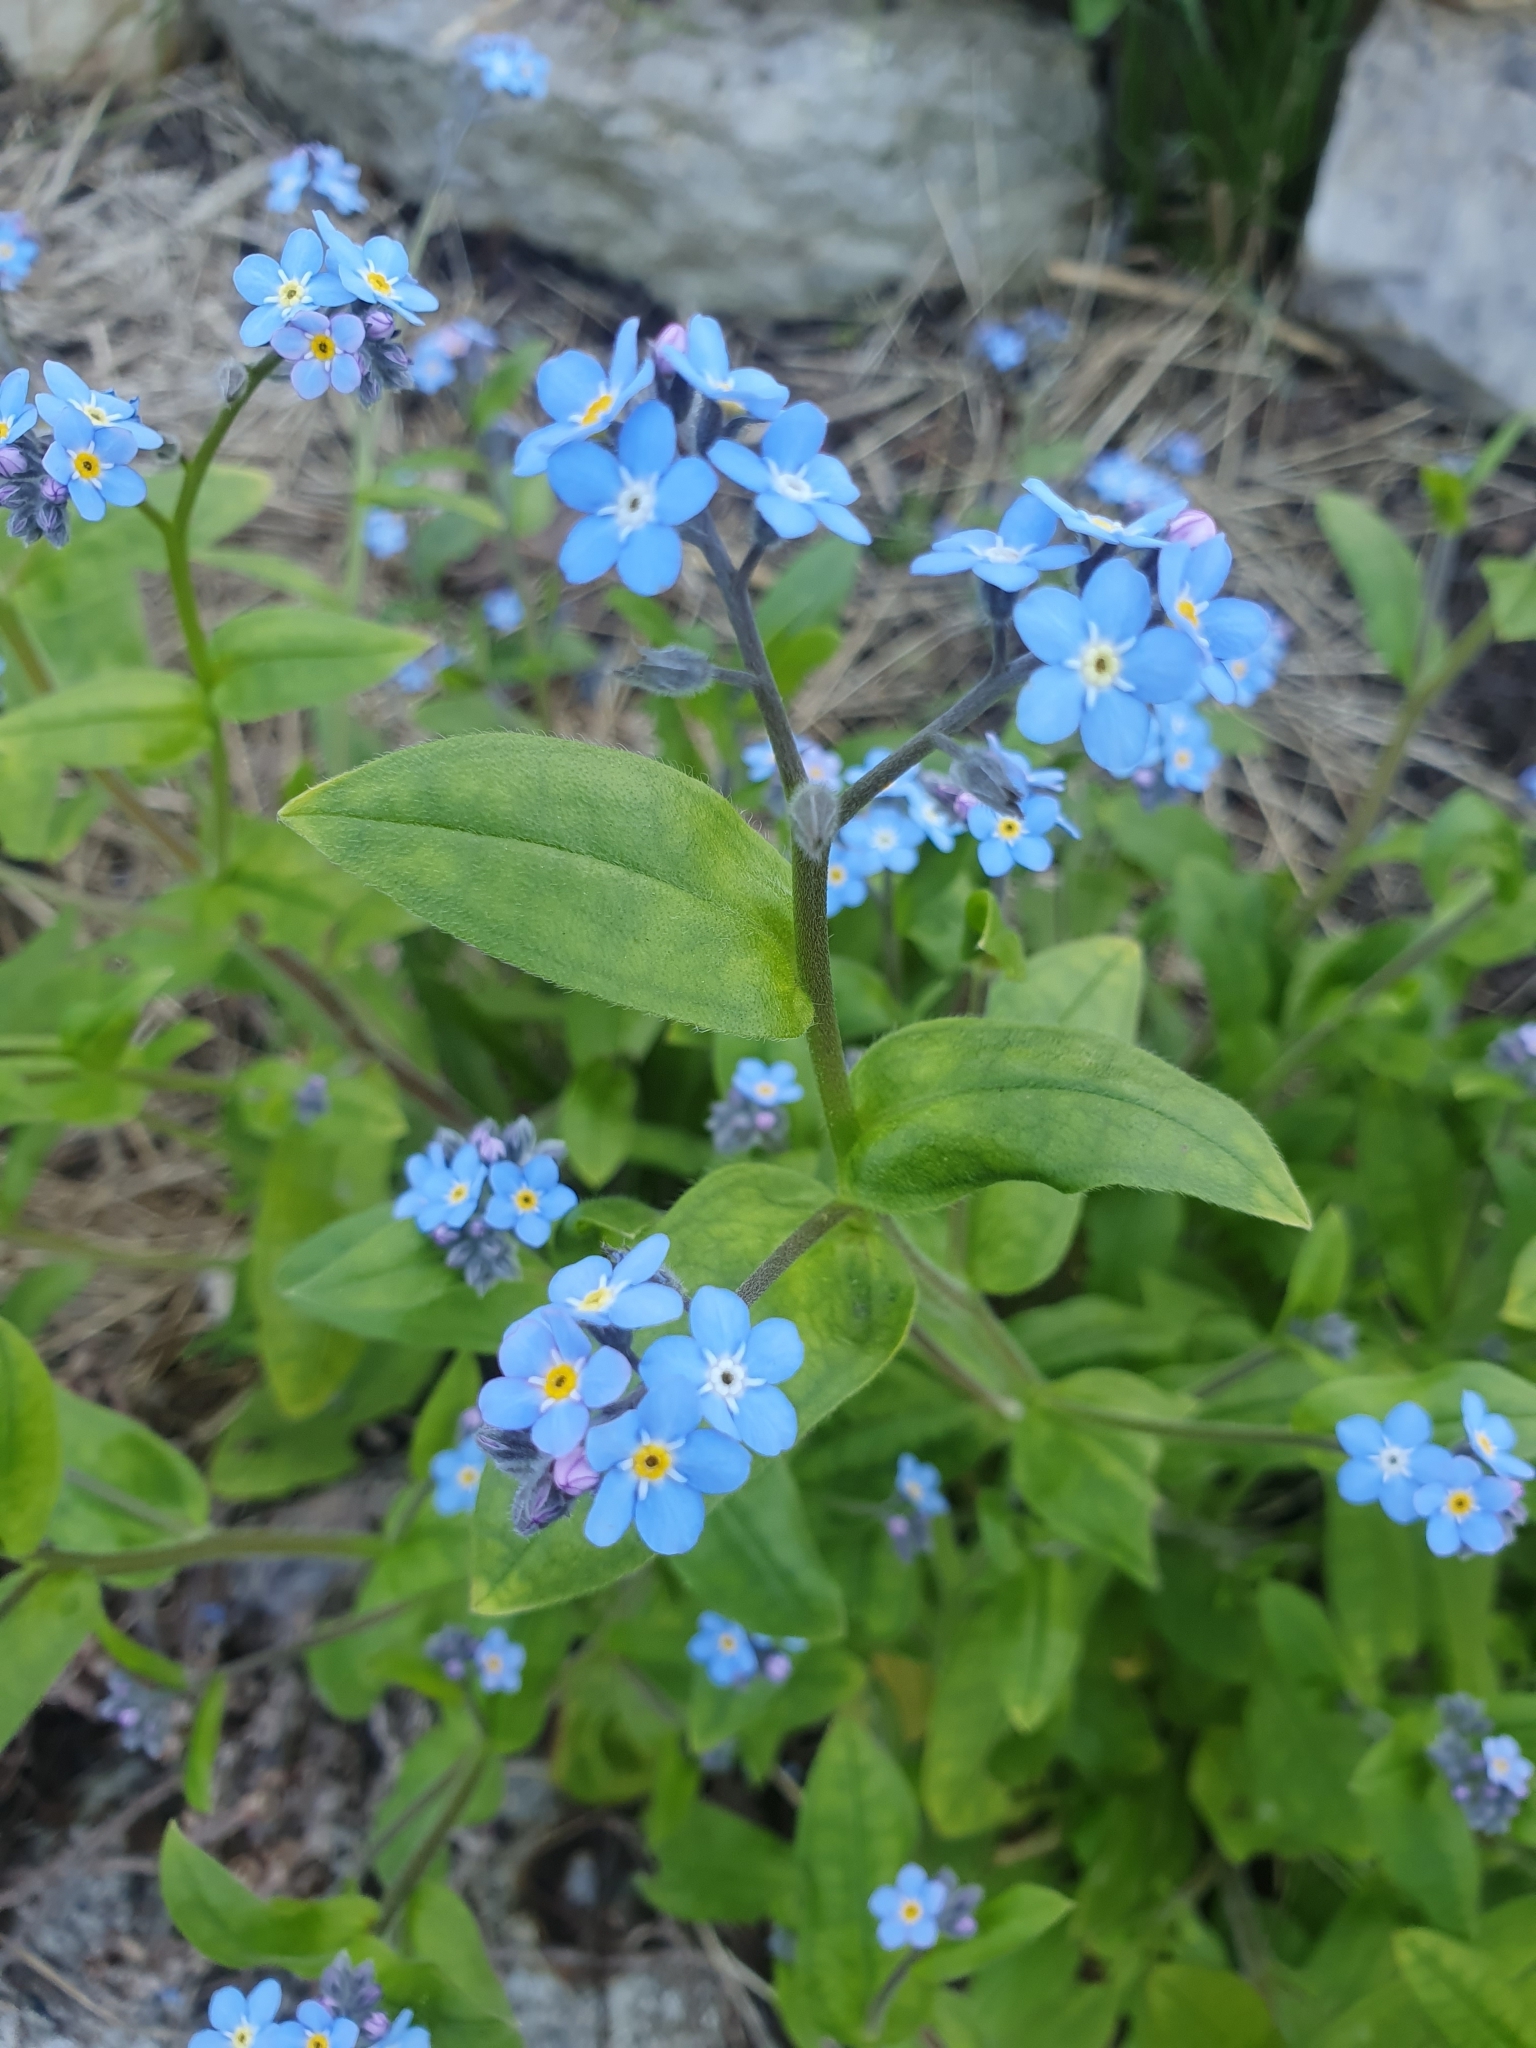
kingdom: Plantae
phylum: Tracheophyta
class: Magnoliopsida
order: Boraginales
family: Boraginaceae
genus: Myosotis
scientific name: Myosotis sylvatica
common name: Wood forget-me-not
